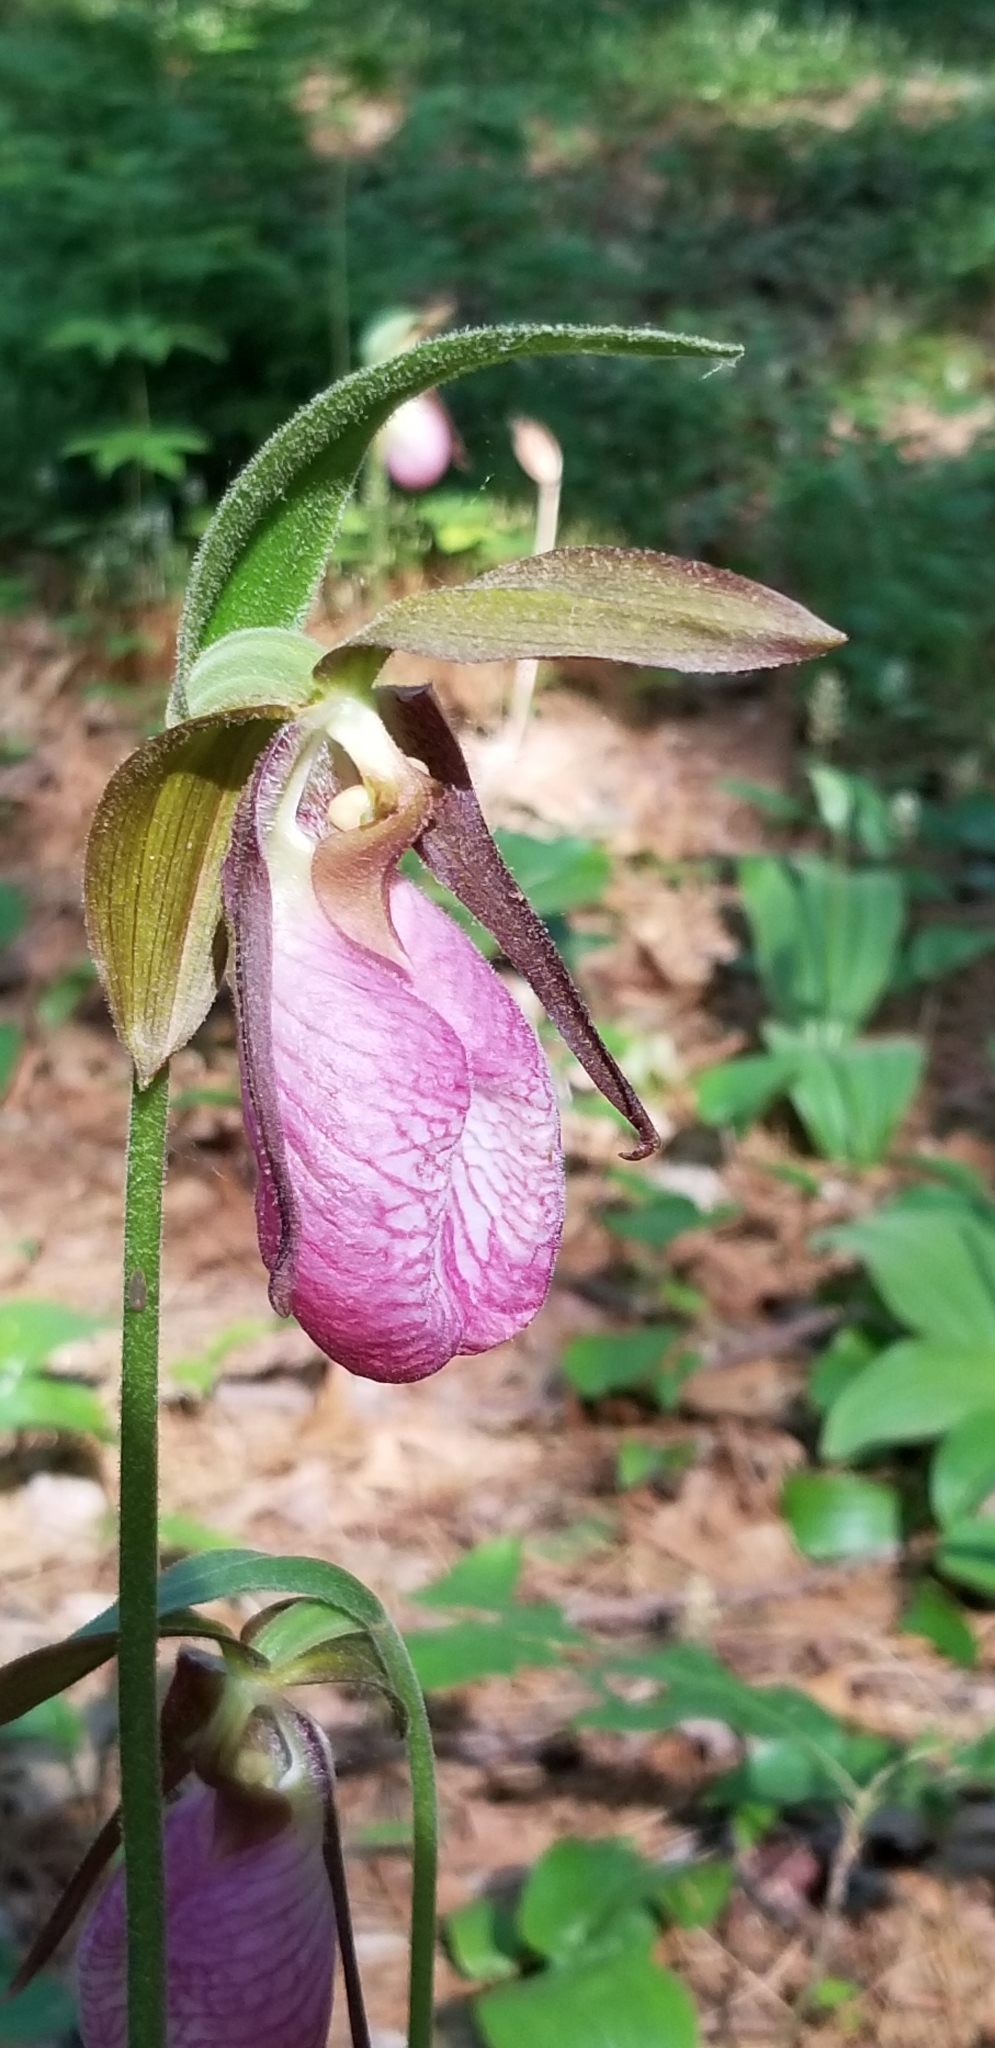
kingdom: Plantae
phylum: Tracheophyta
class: Liliopsida
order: Asparagales
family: Orchidaceae
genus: Cypripedium
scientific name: Cypripedium acaule
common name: Pink lady's-slipper
